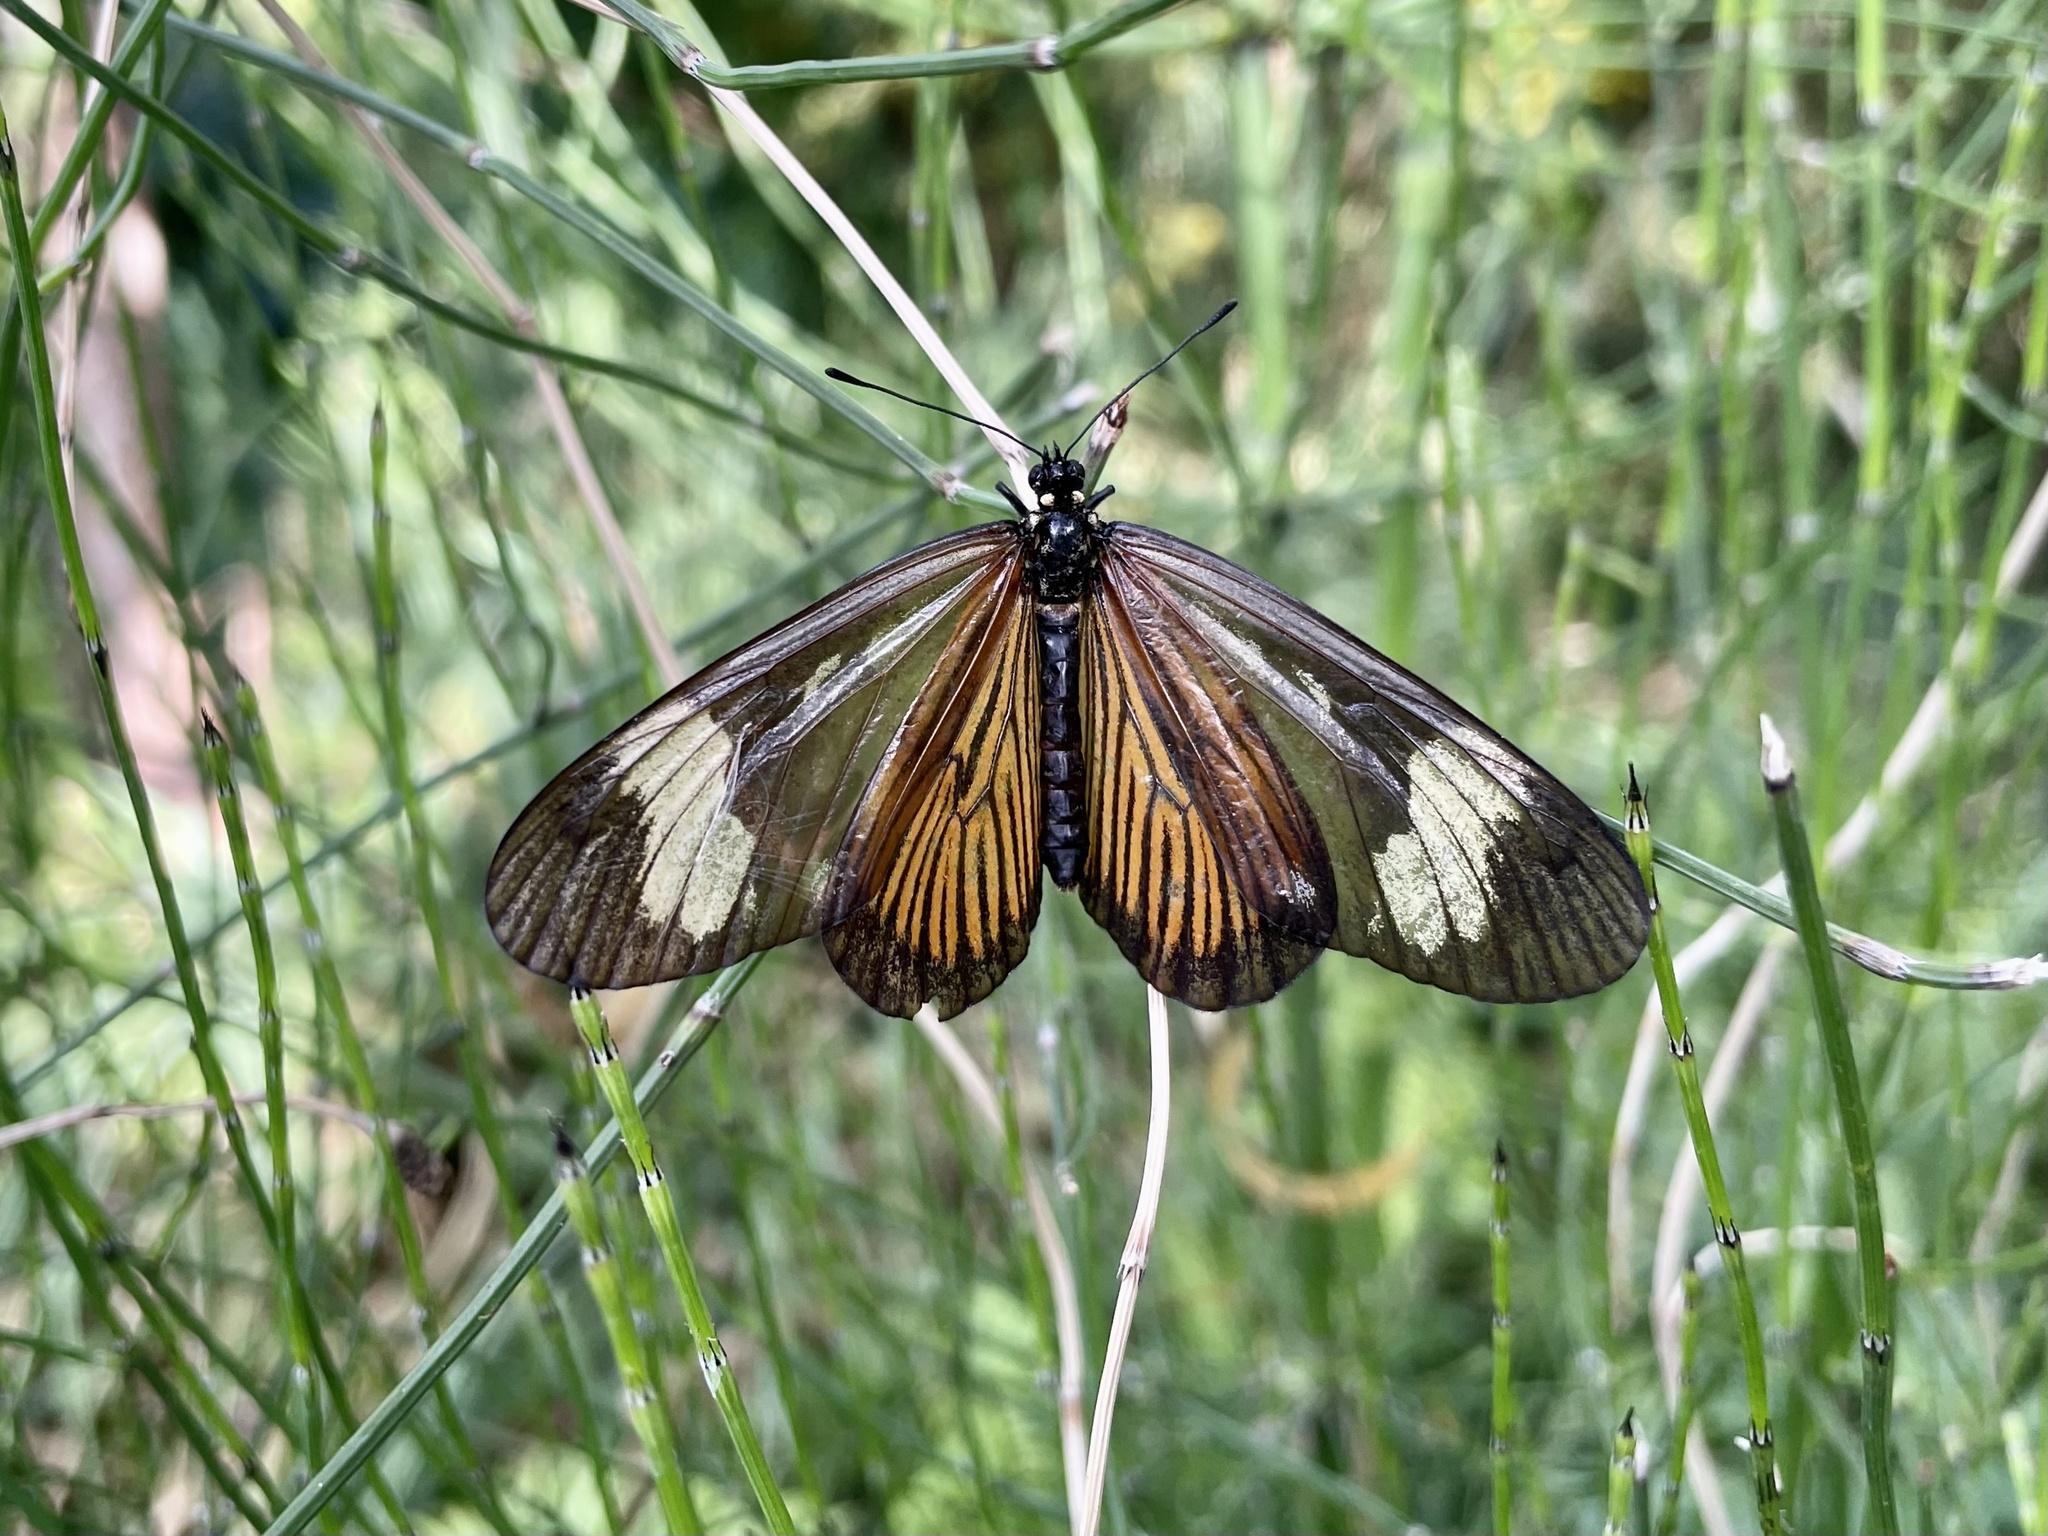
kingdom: Animalia
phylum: Arthropoda
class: Insecta
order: Lepidoptera
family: Nymphalidae
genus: Actinote
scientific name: Actinote pellenea
